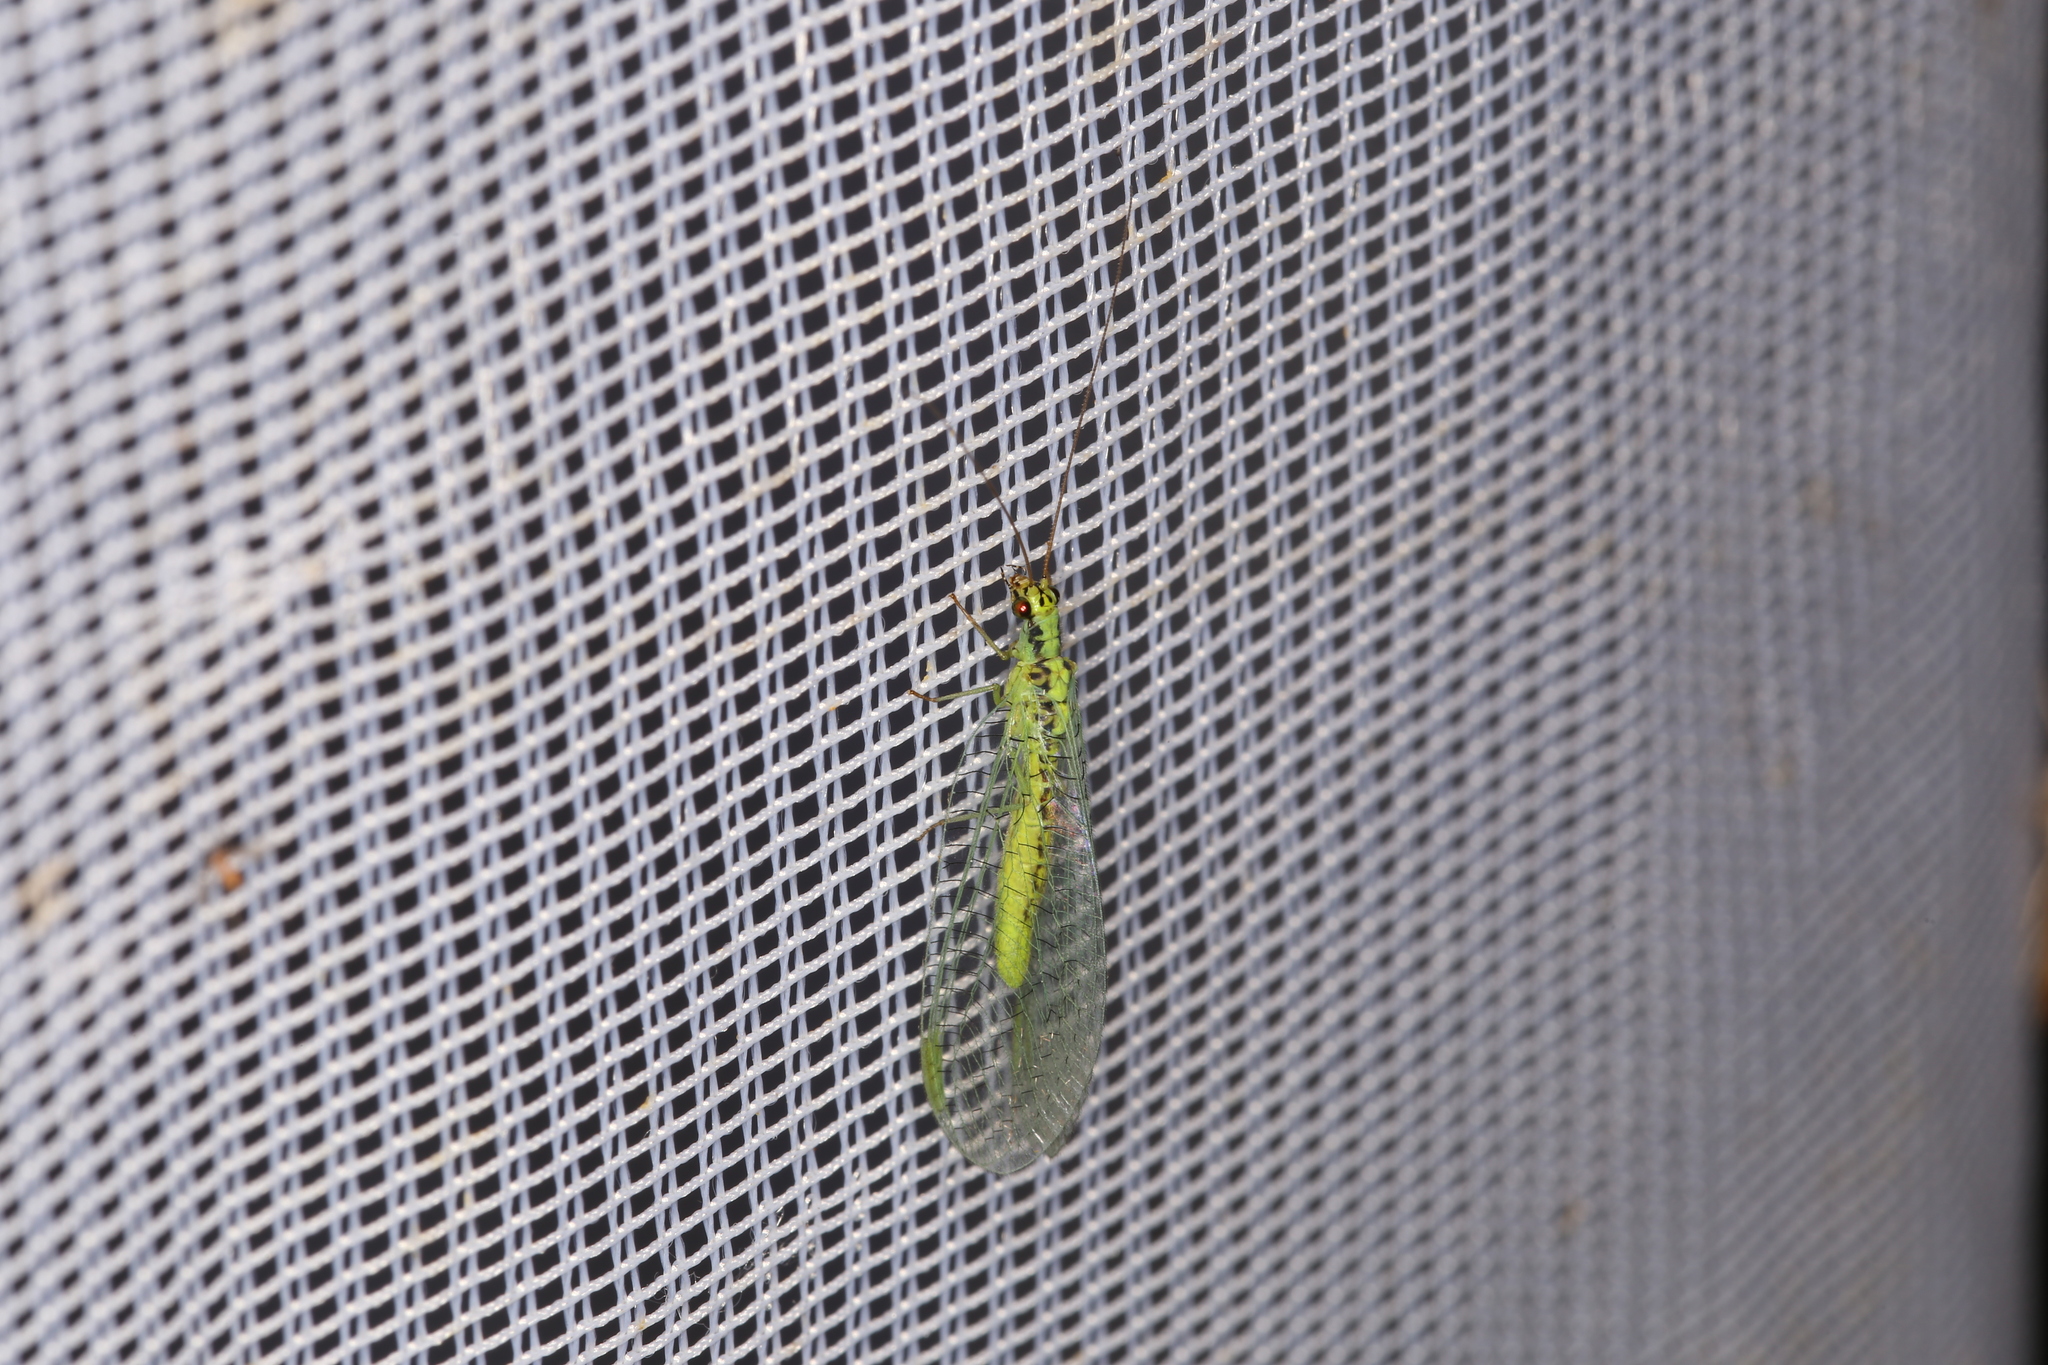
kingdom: Animalia
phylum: Arthropoda
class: Insecta
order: Neuroptera
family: Chrysopidae
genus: Chrysopa
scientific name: Chrysopa walkeri
